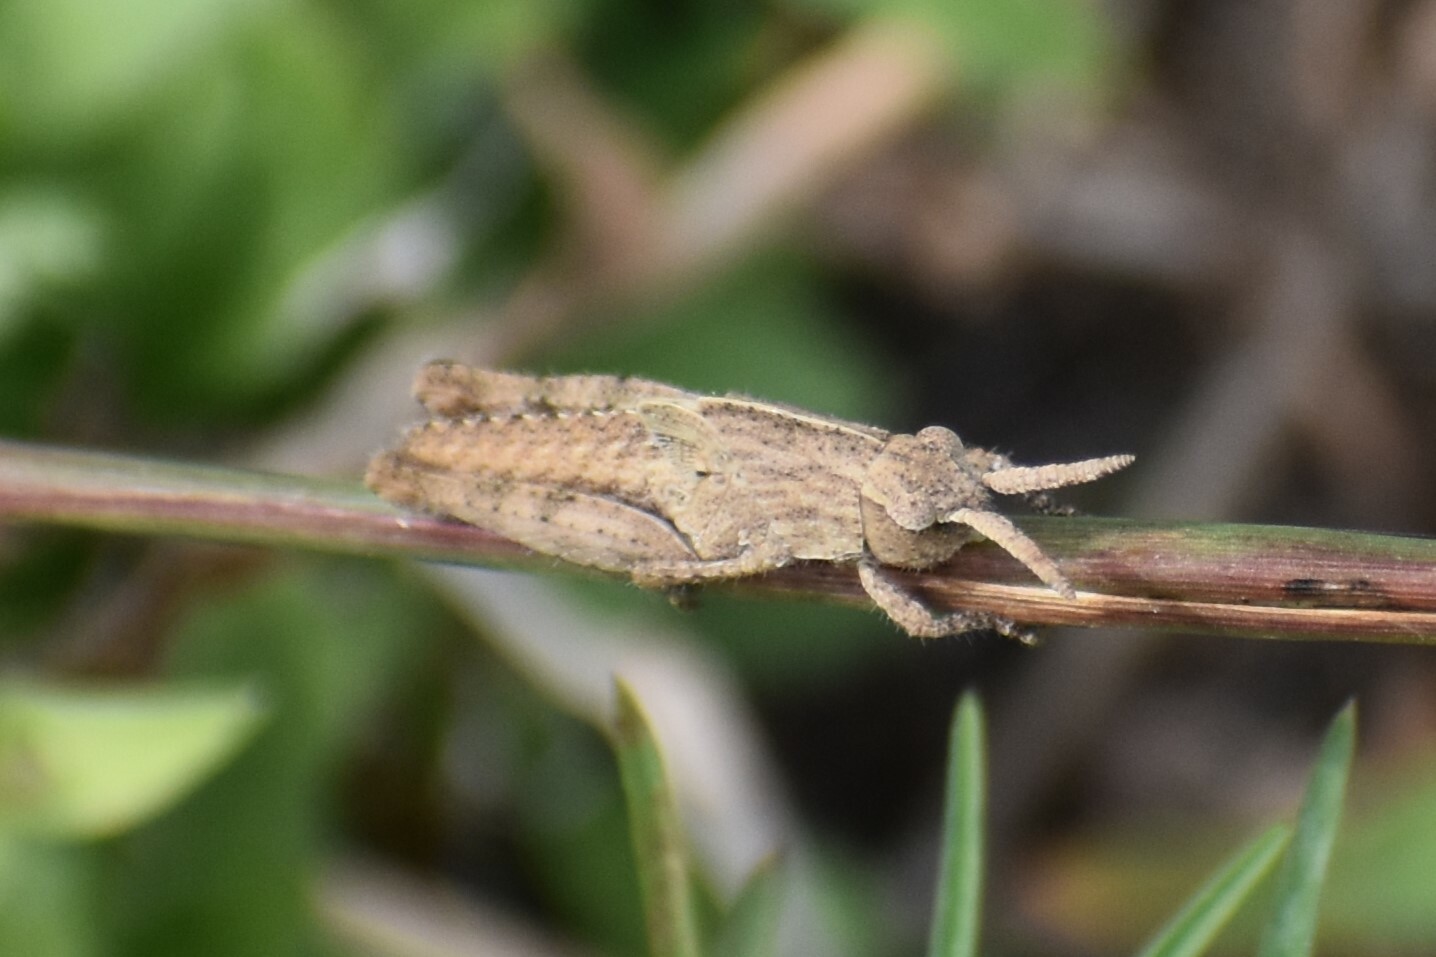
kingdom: Animalia
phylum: Arthropoda
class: Insecta
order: Orthoptera
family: Acrididae
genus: Chortophaga
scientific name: Chortophaga viridifasciata
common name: Green-striped grasshopper
